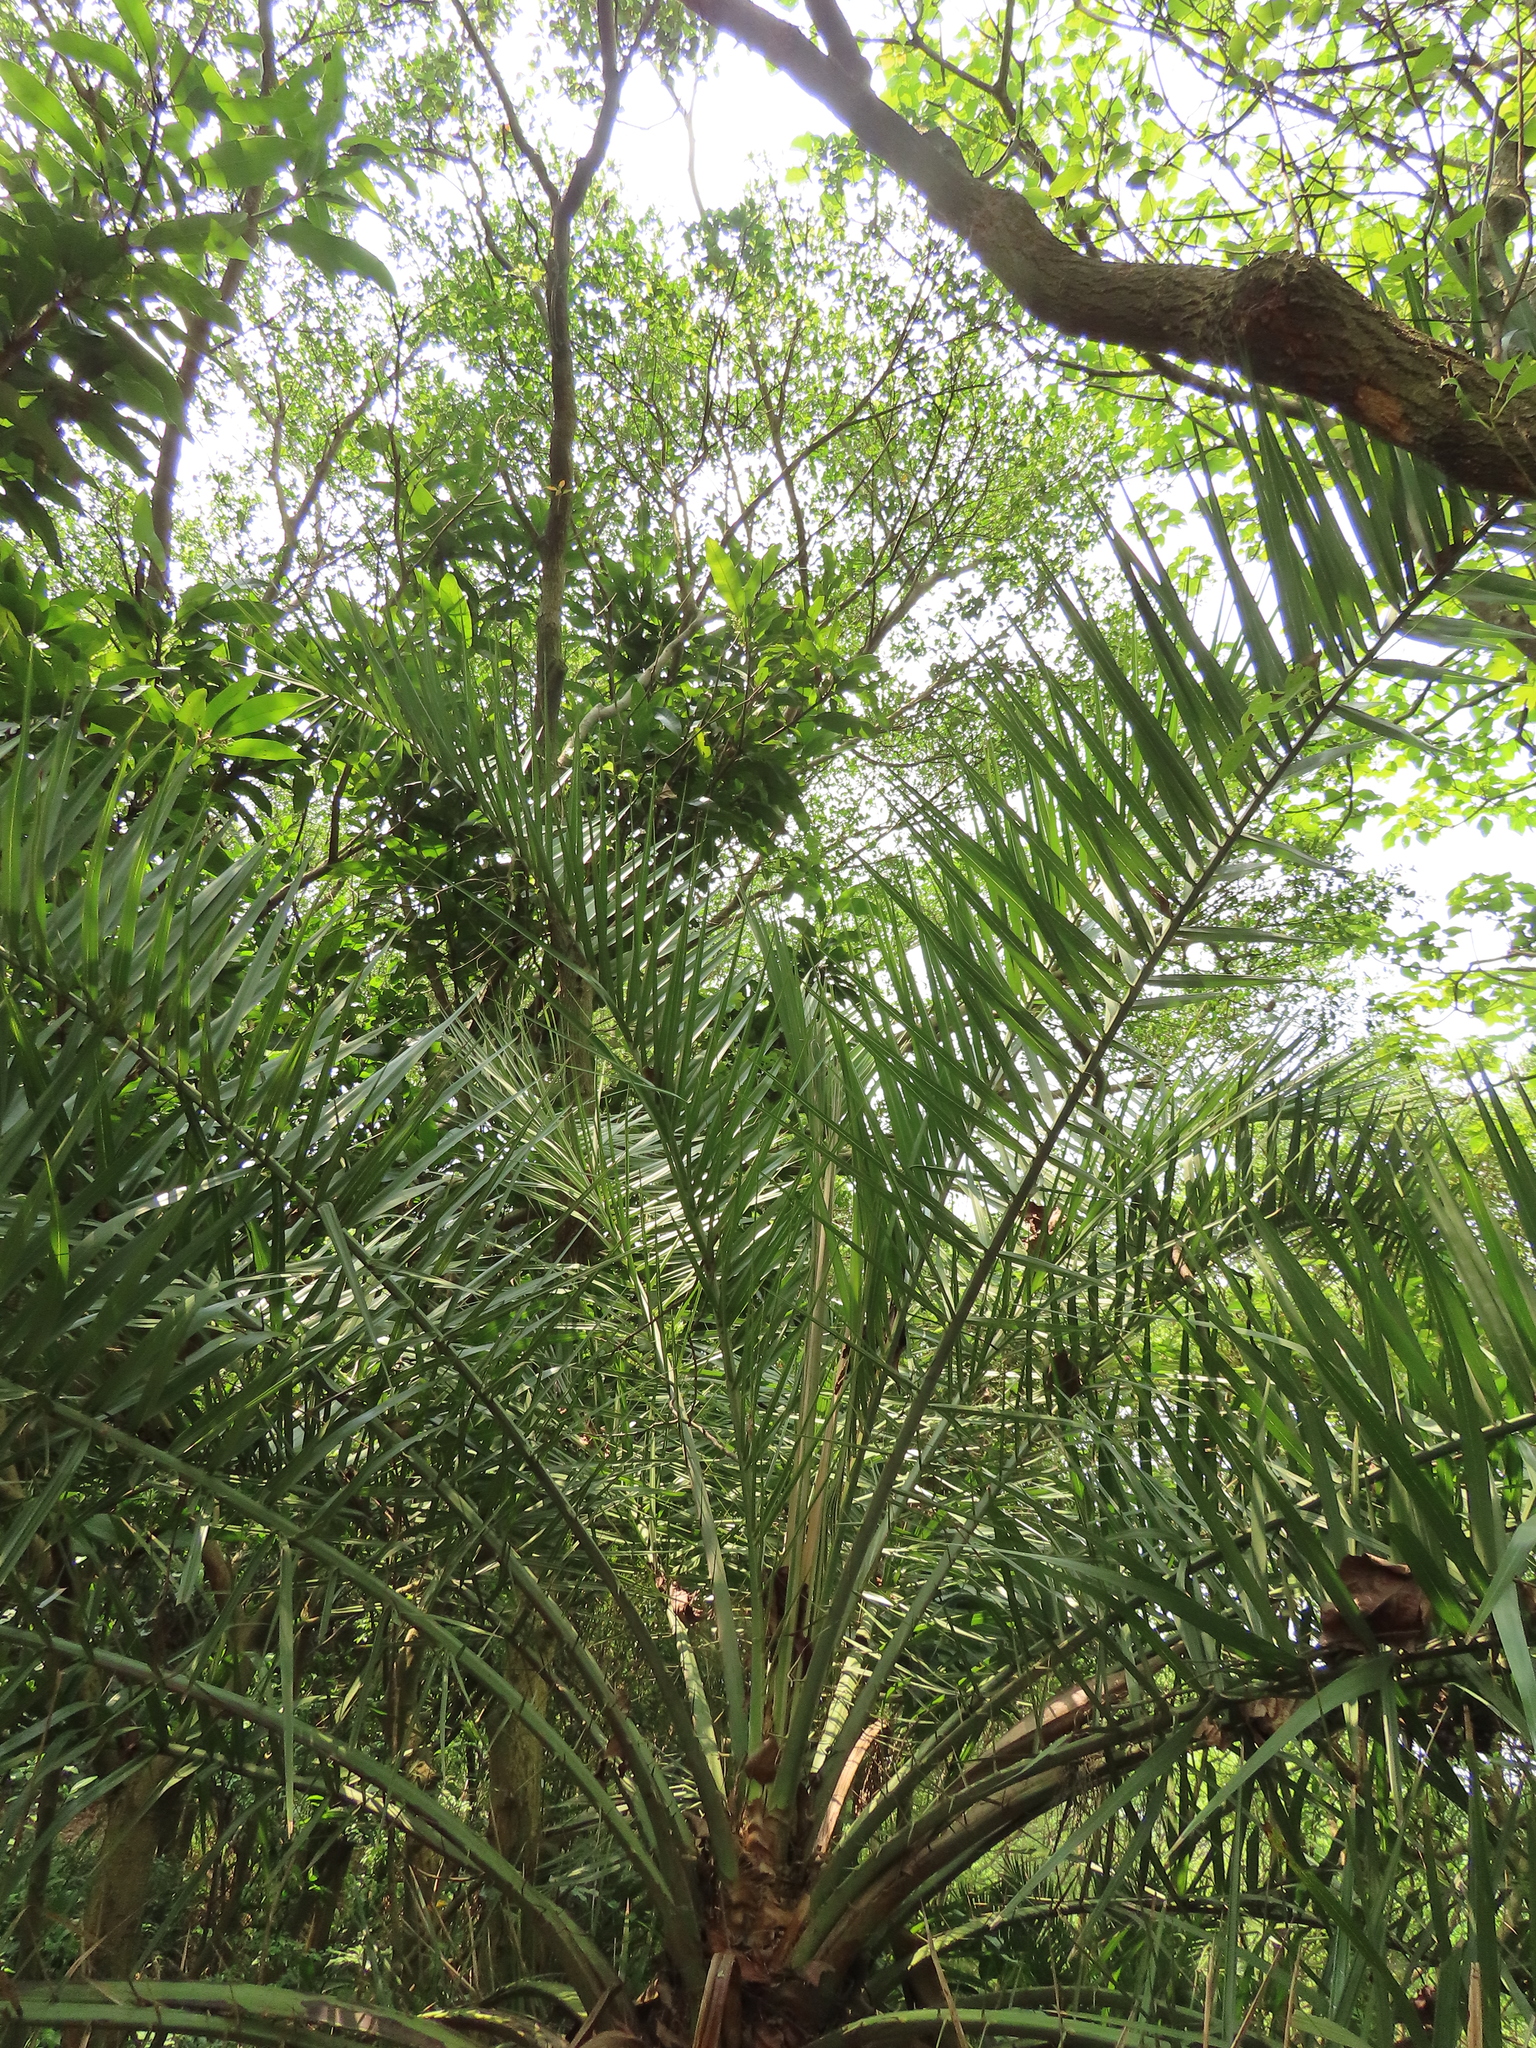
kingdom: Plantae
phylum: Tracheophyta
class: Liliopsida
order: Arecales
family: Arecaceae
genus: Phoenix
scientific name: Phoenix loureiroi
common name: Loureiro's palm
